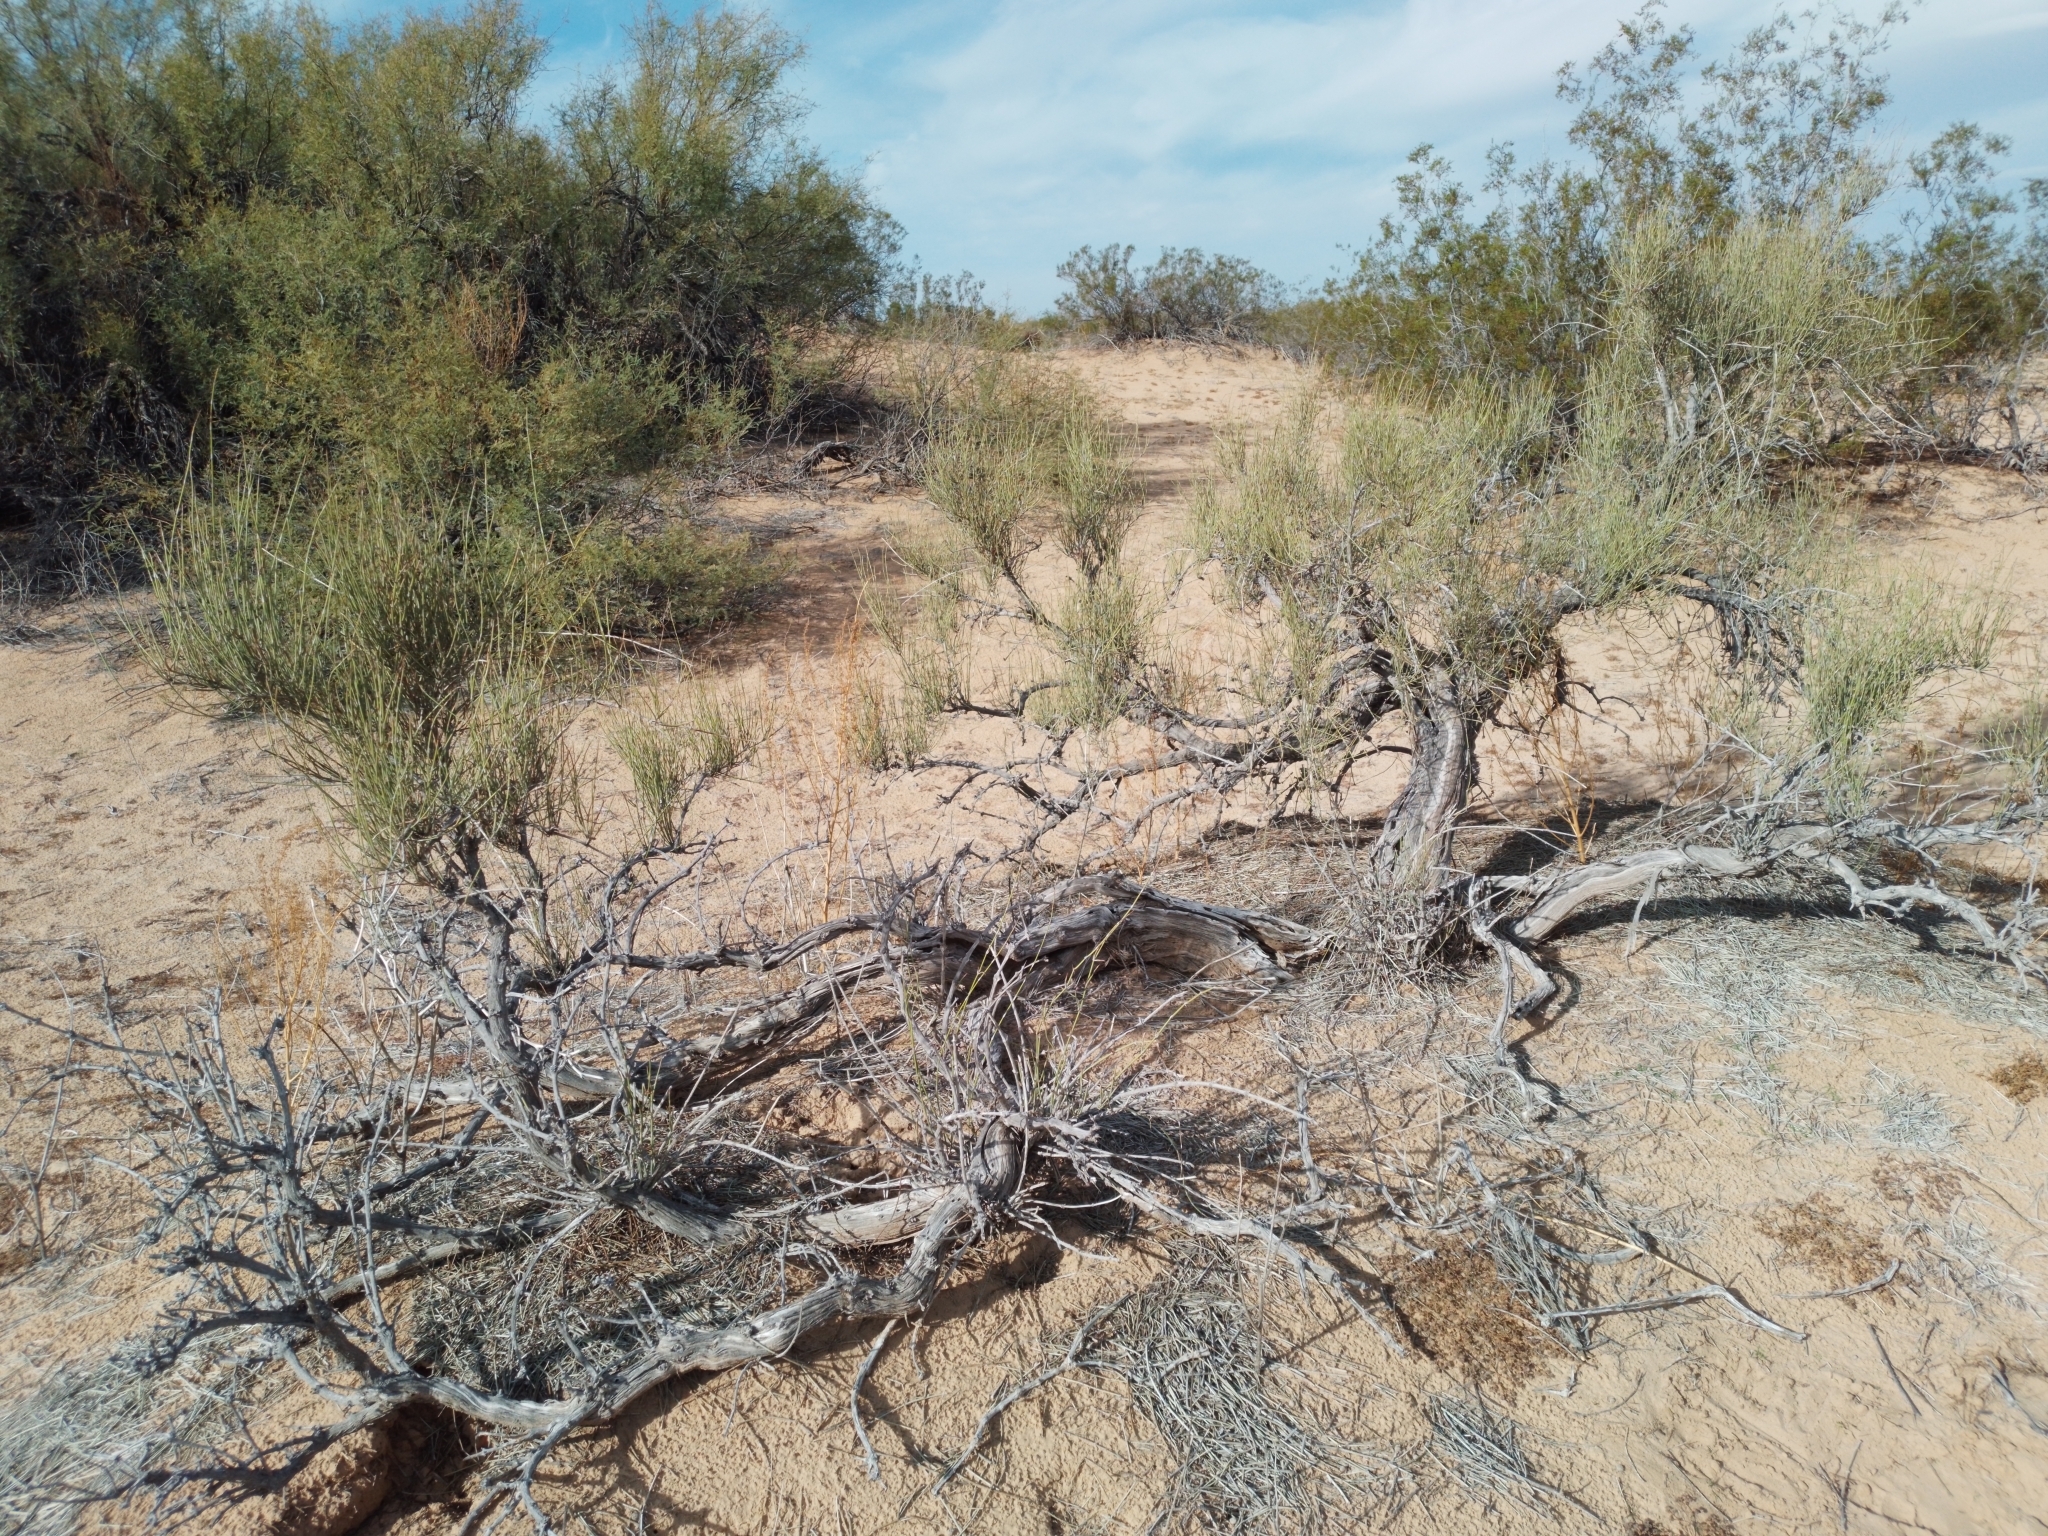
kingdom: Plantae
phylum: Tracheophyta
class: Gnetopsida
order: Ephedrales
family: Ephedraceae
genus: Ephedra
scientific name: Ephedra trifurca
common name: Mexican-tea
